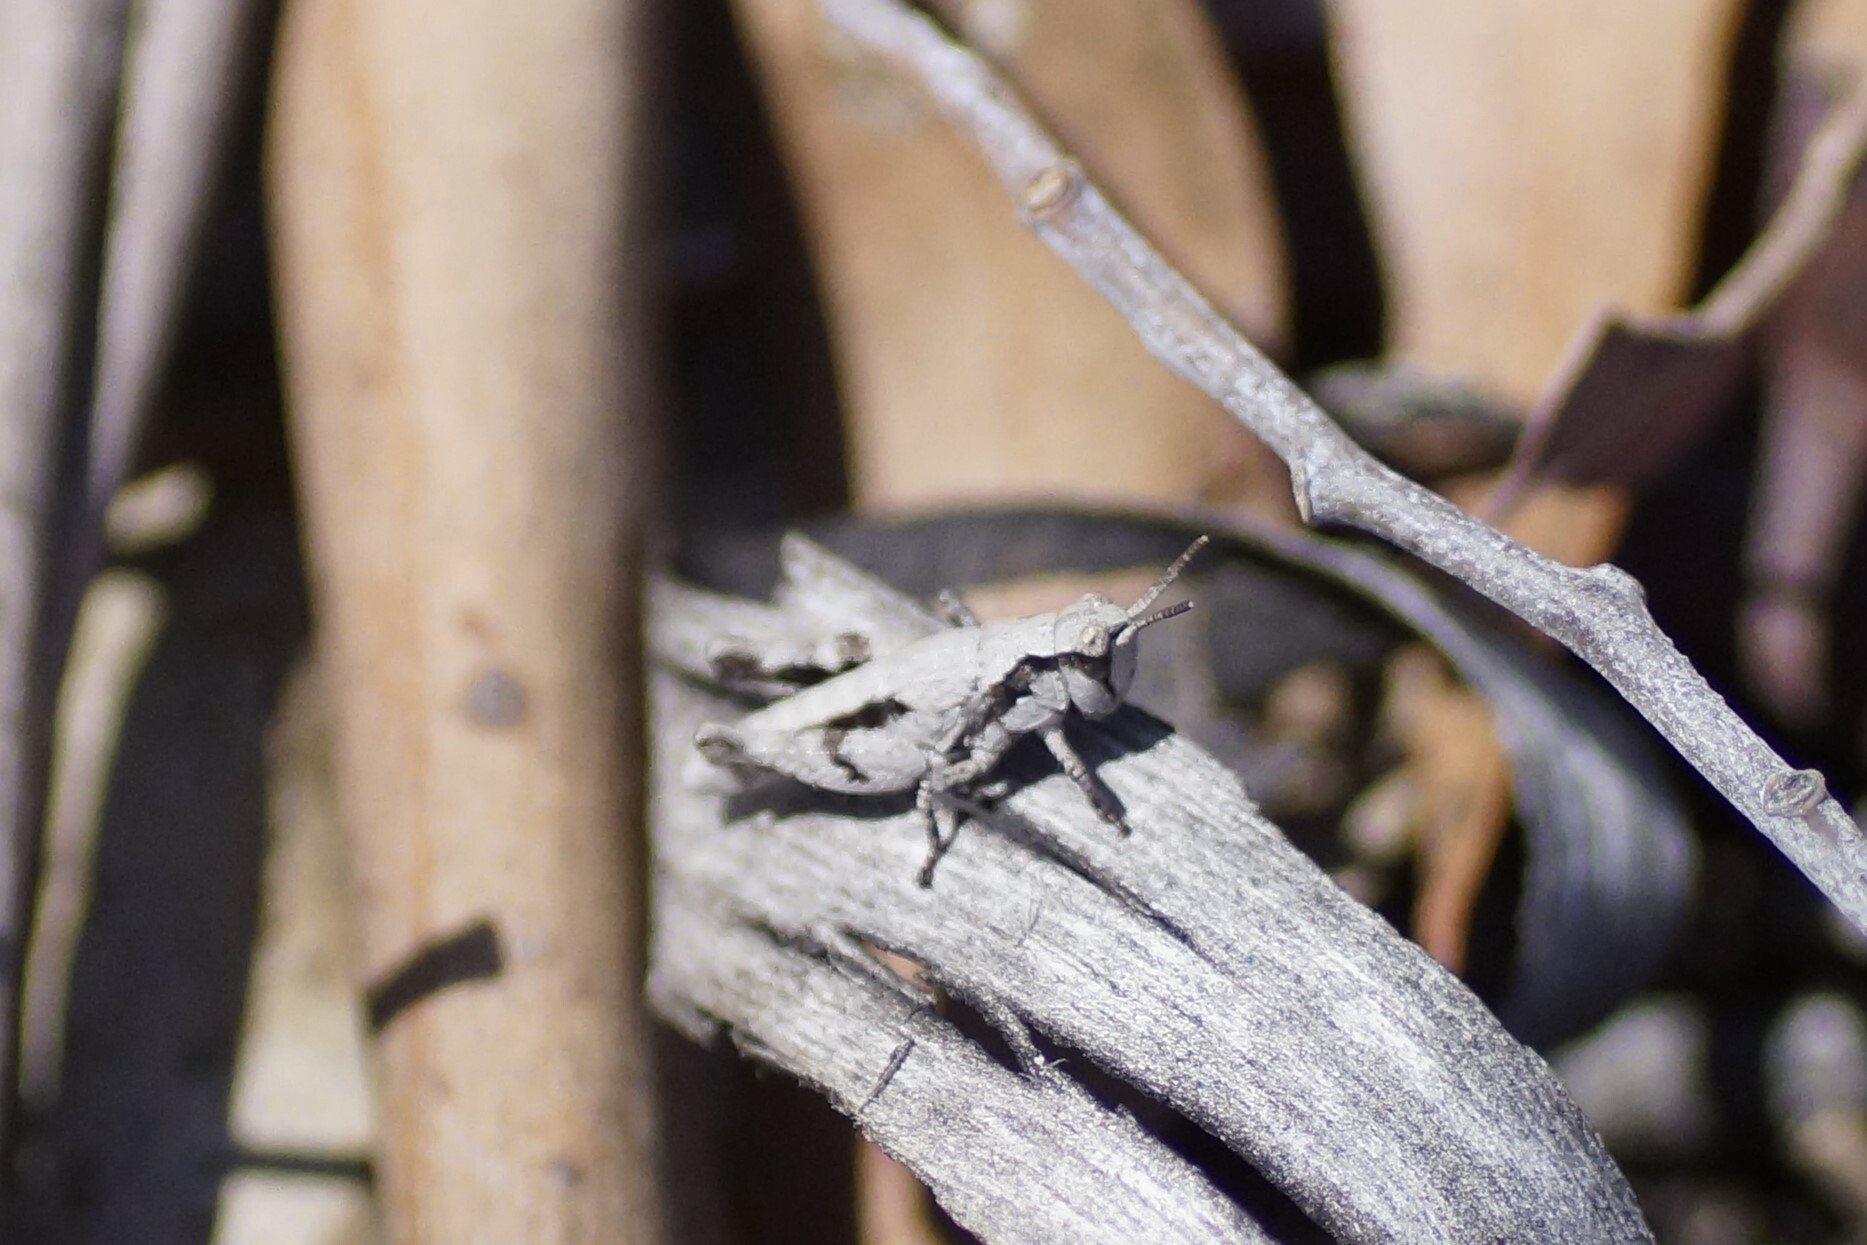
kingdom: Animalia
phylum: Arthropoda
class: Insecta
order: Orthoptera
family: Acrididae
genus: Tasmaniacris
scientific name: Tasmaniacris tasmaniensis
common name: Tasmanian grasshopper
